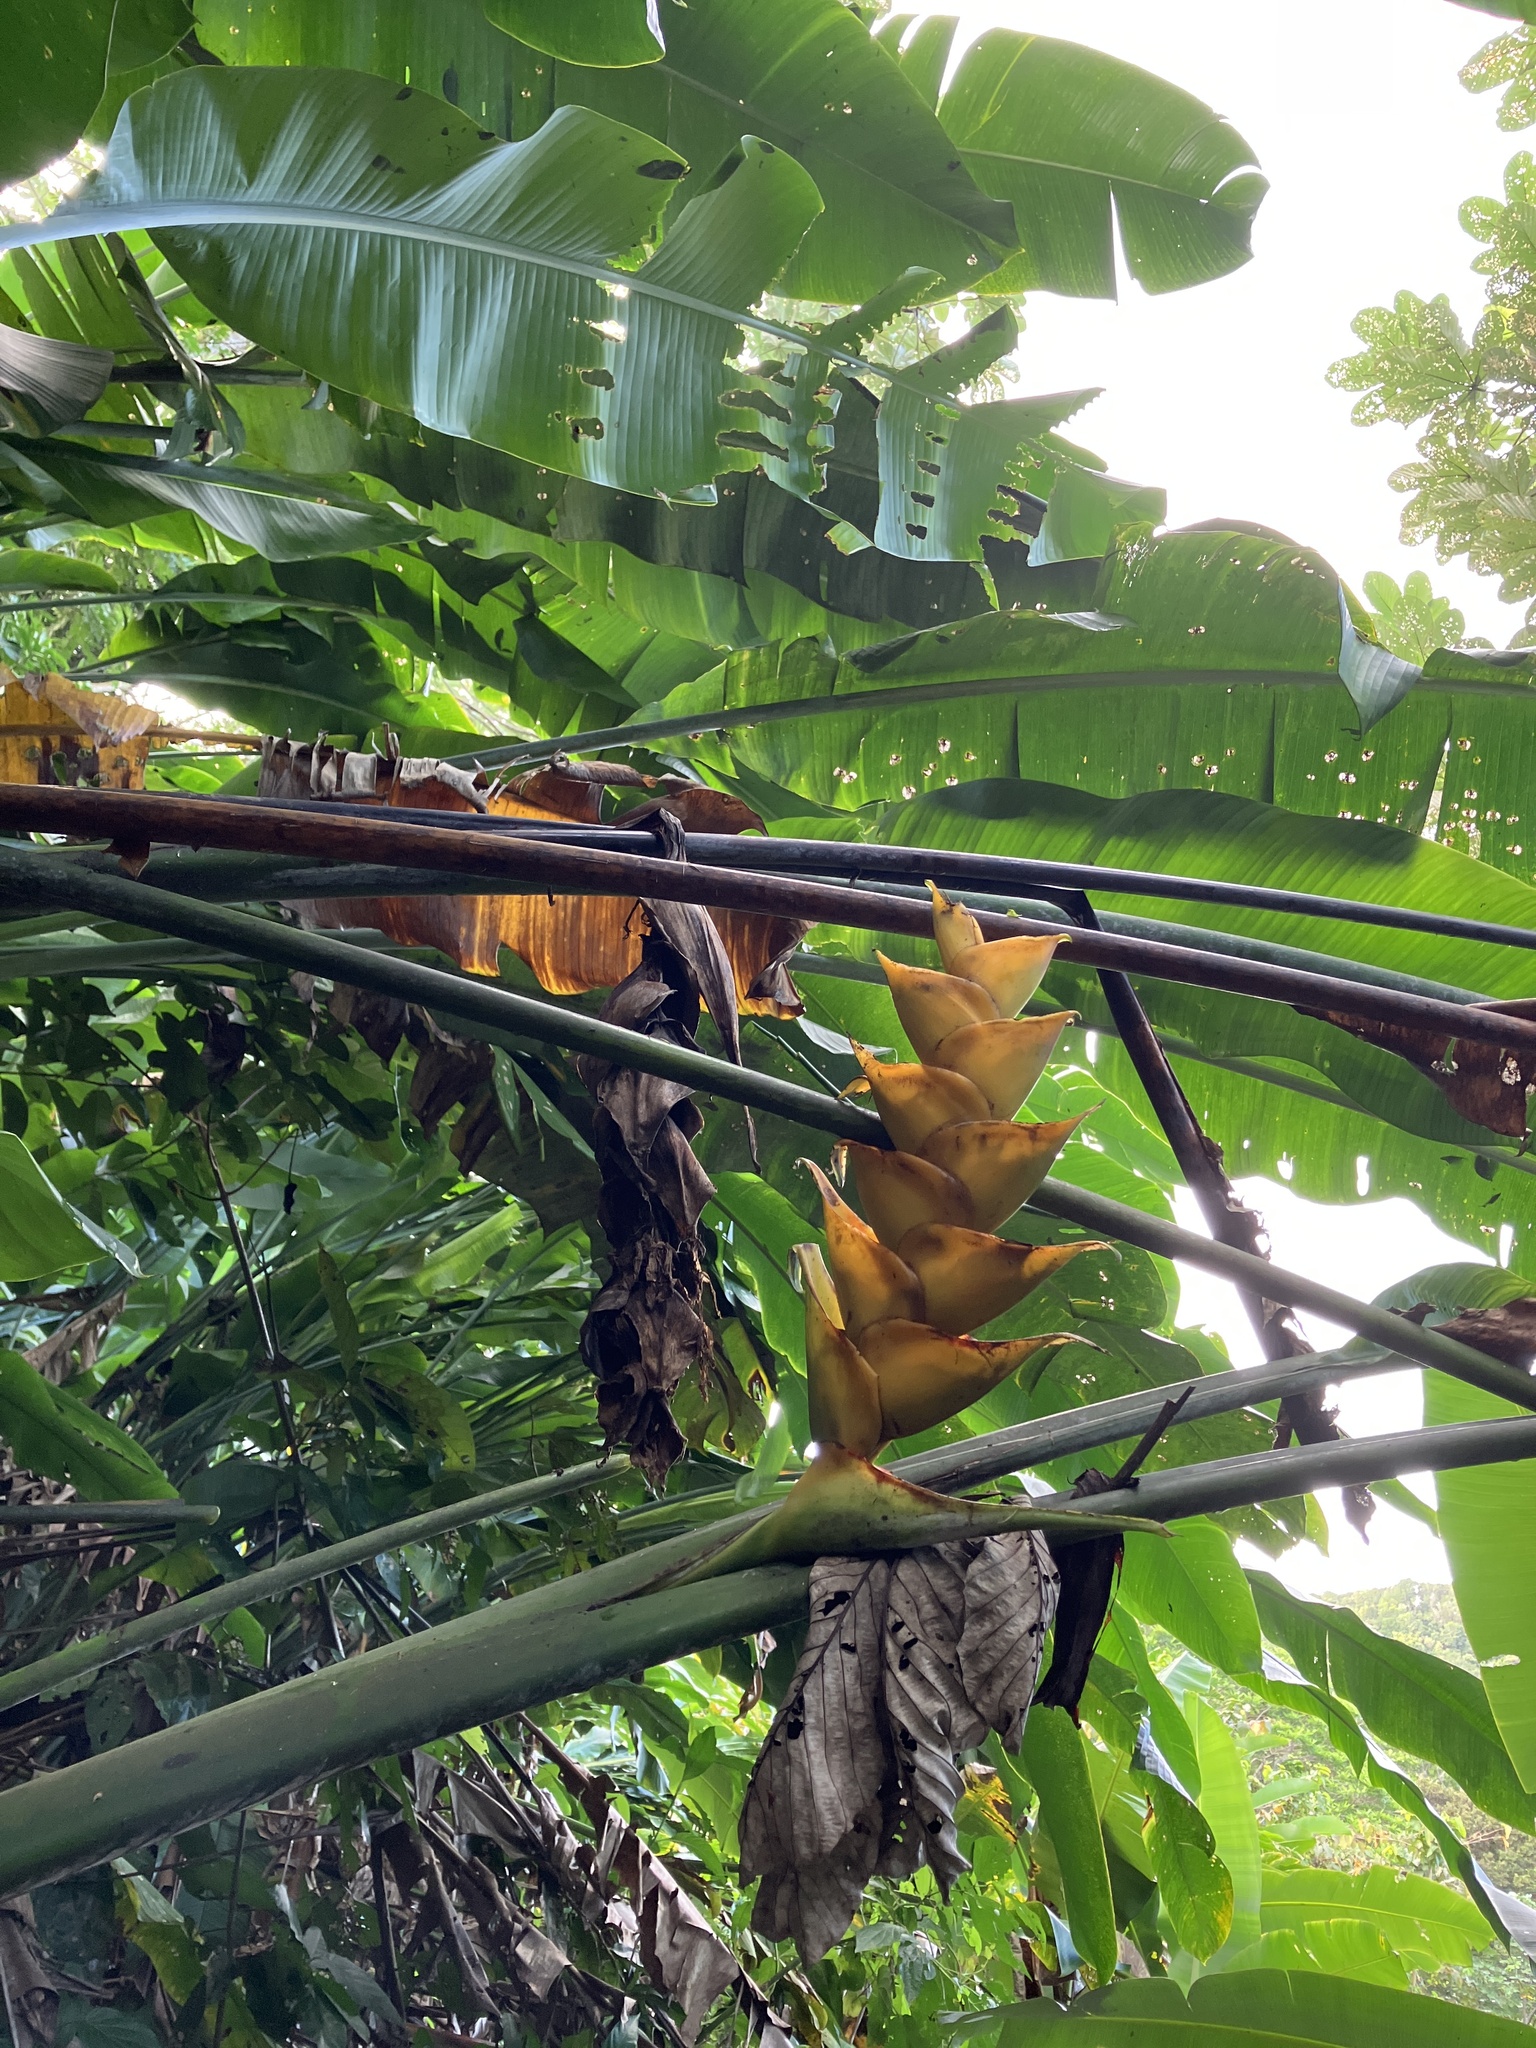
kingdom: Plantae
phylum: Tracheophyta
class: Liliopsida
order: Zingiberales
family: Heliconiaceae
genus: Heliconia
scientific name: Heliconia caribaea
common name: Wild plantain
